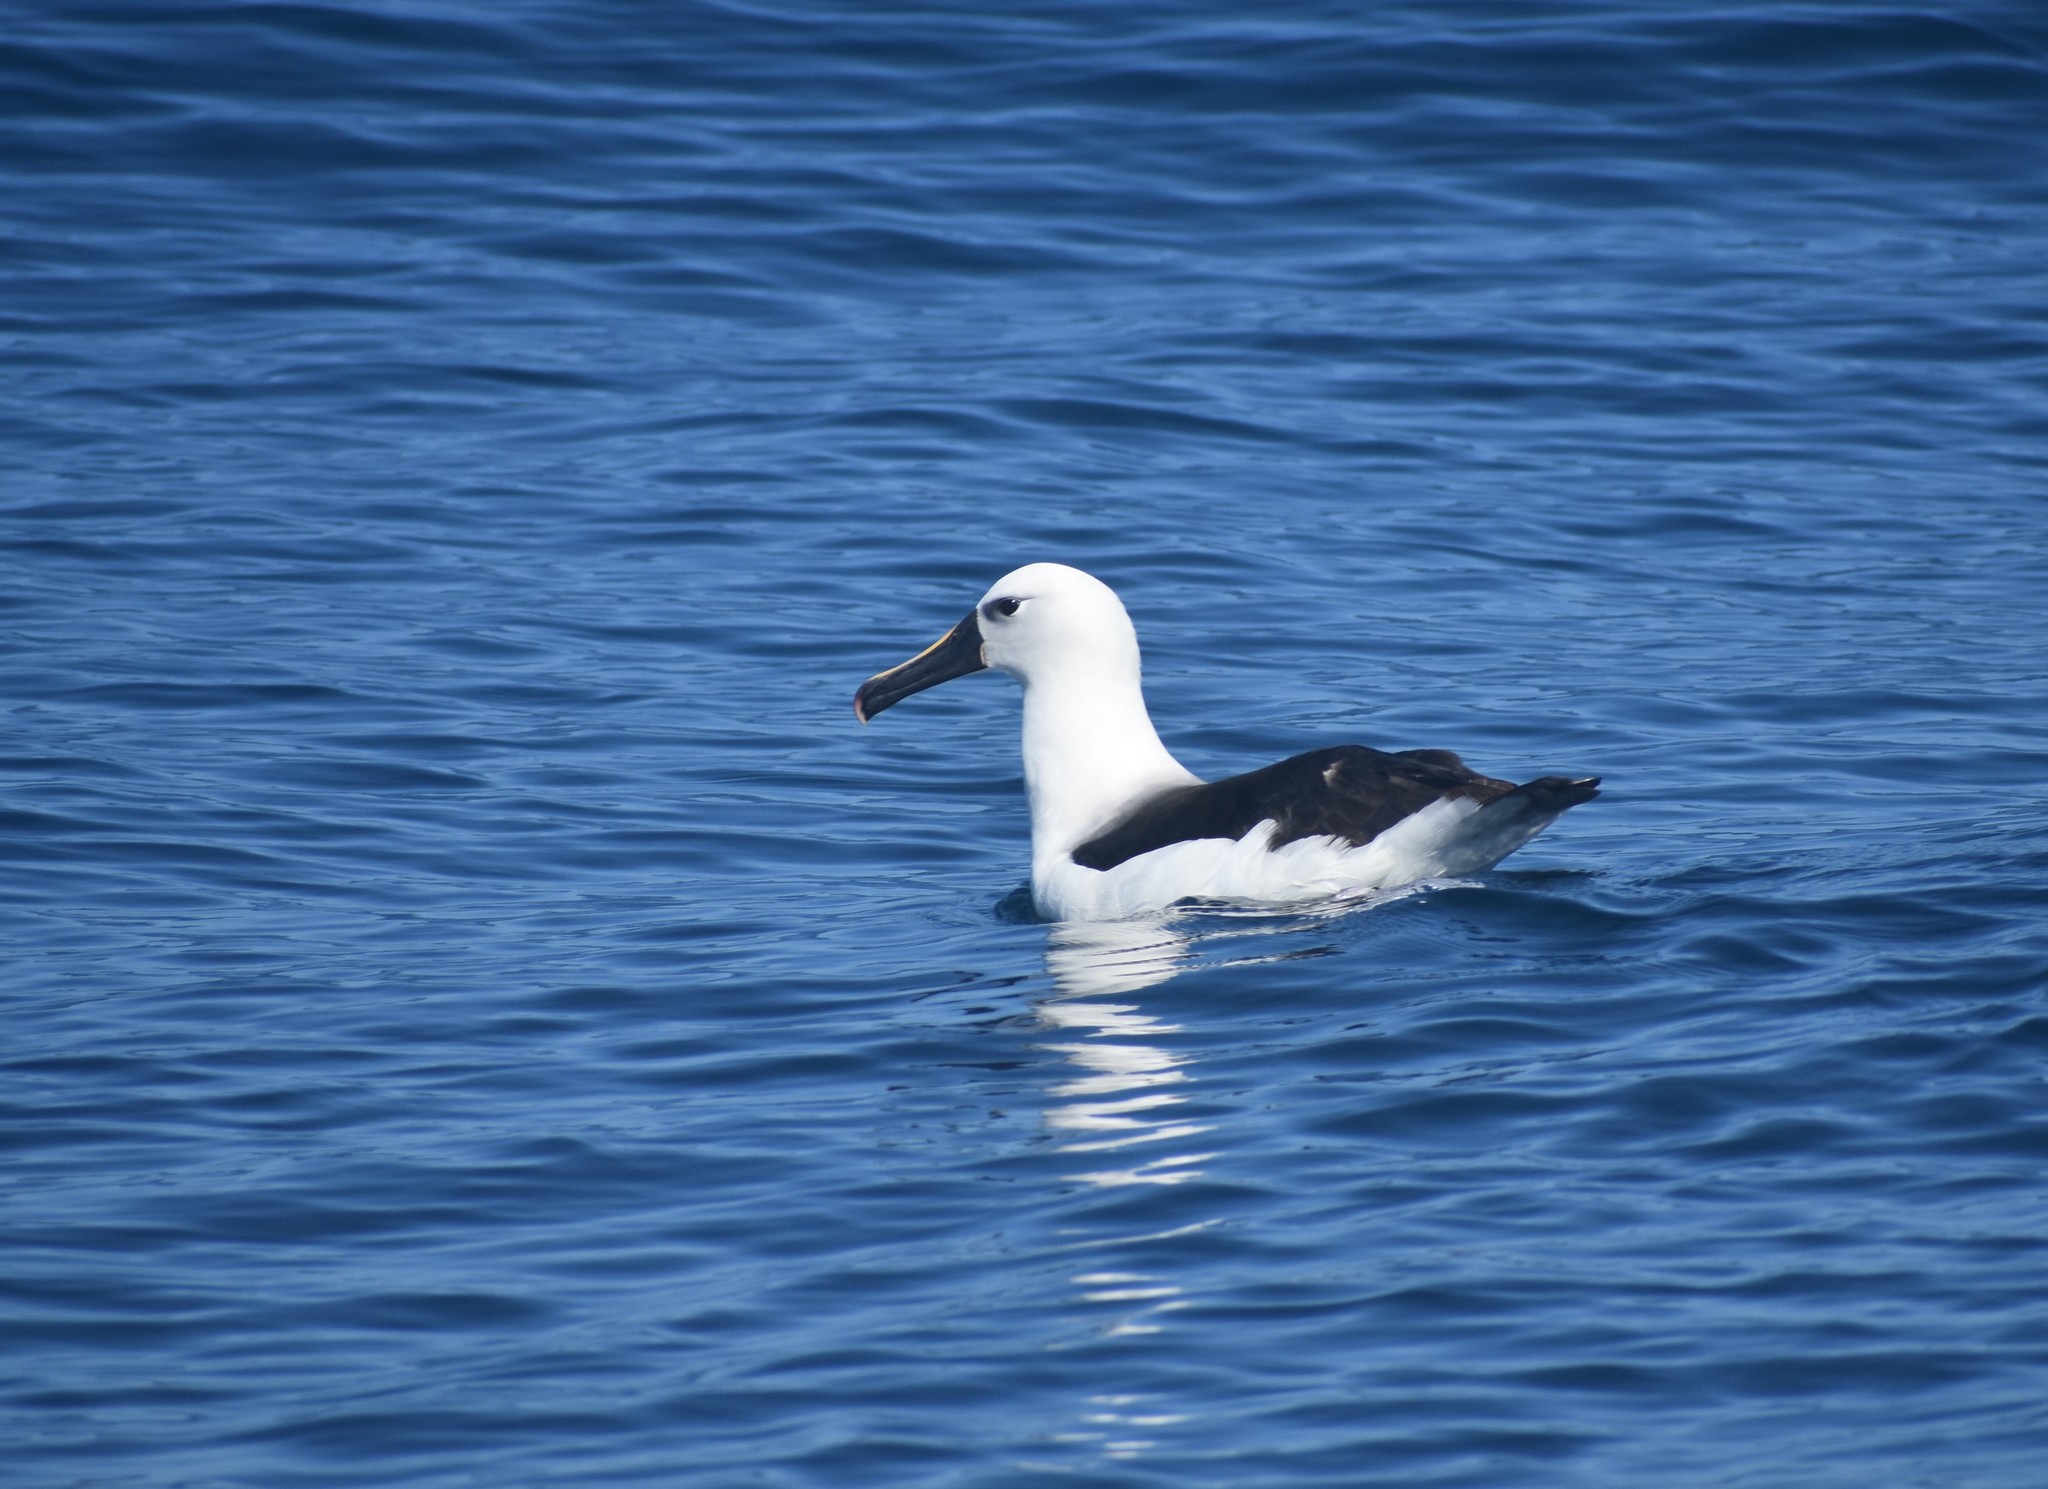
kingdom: Animalia
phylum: Chordata
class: Aves
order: Procellariiformes
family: Diomedeidae
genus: Thalassarche
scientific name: Thalassarche carteri
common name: Indian yellow-nosed albatross
